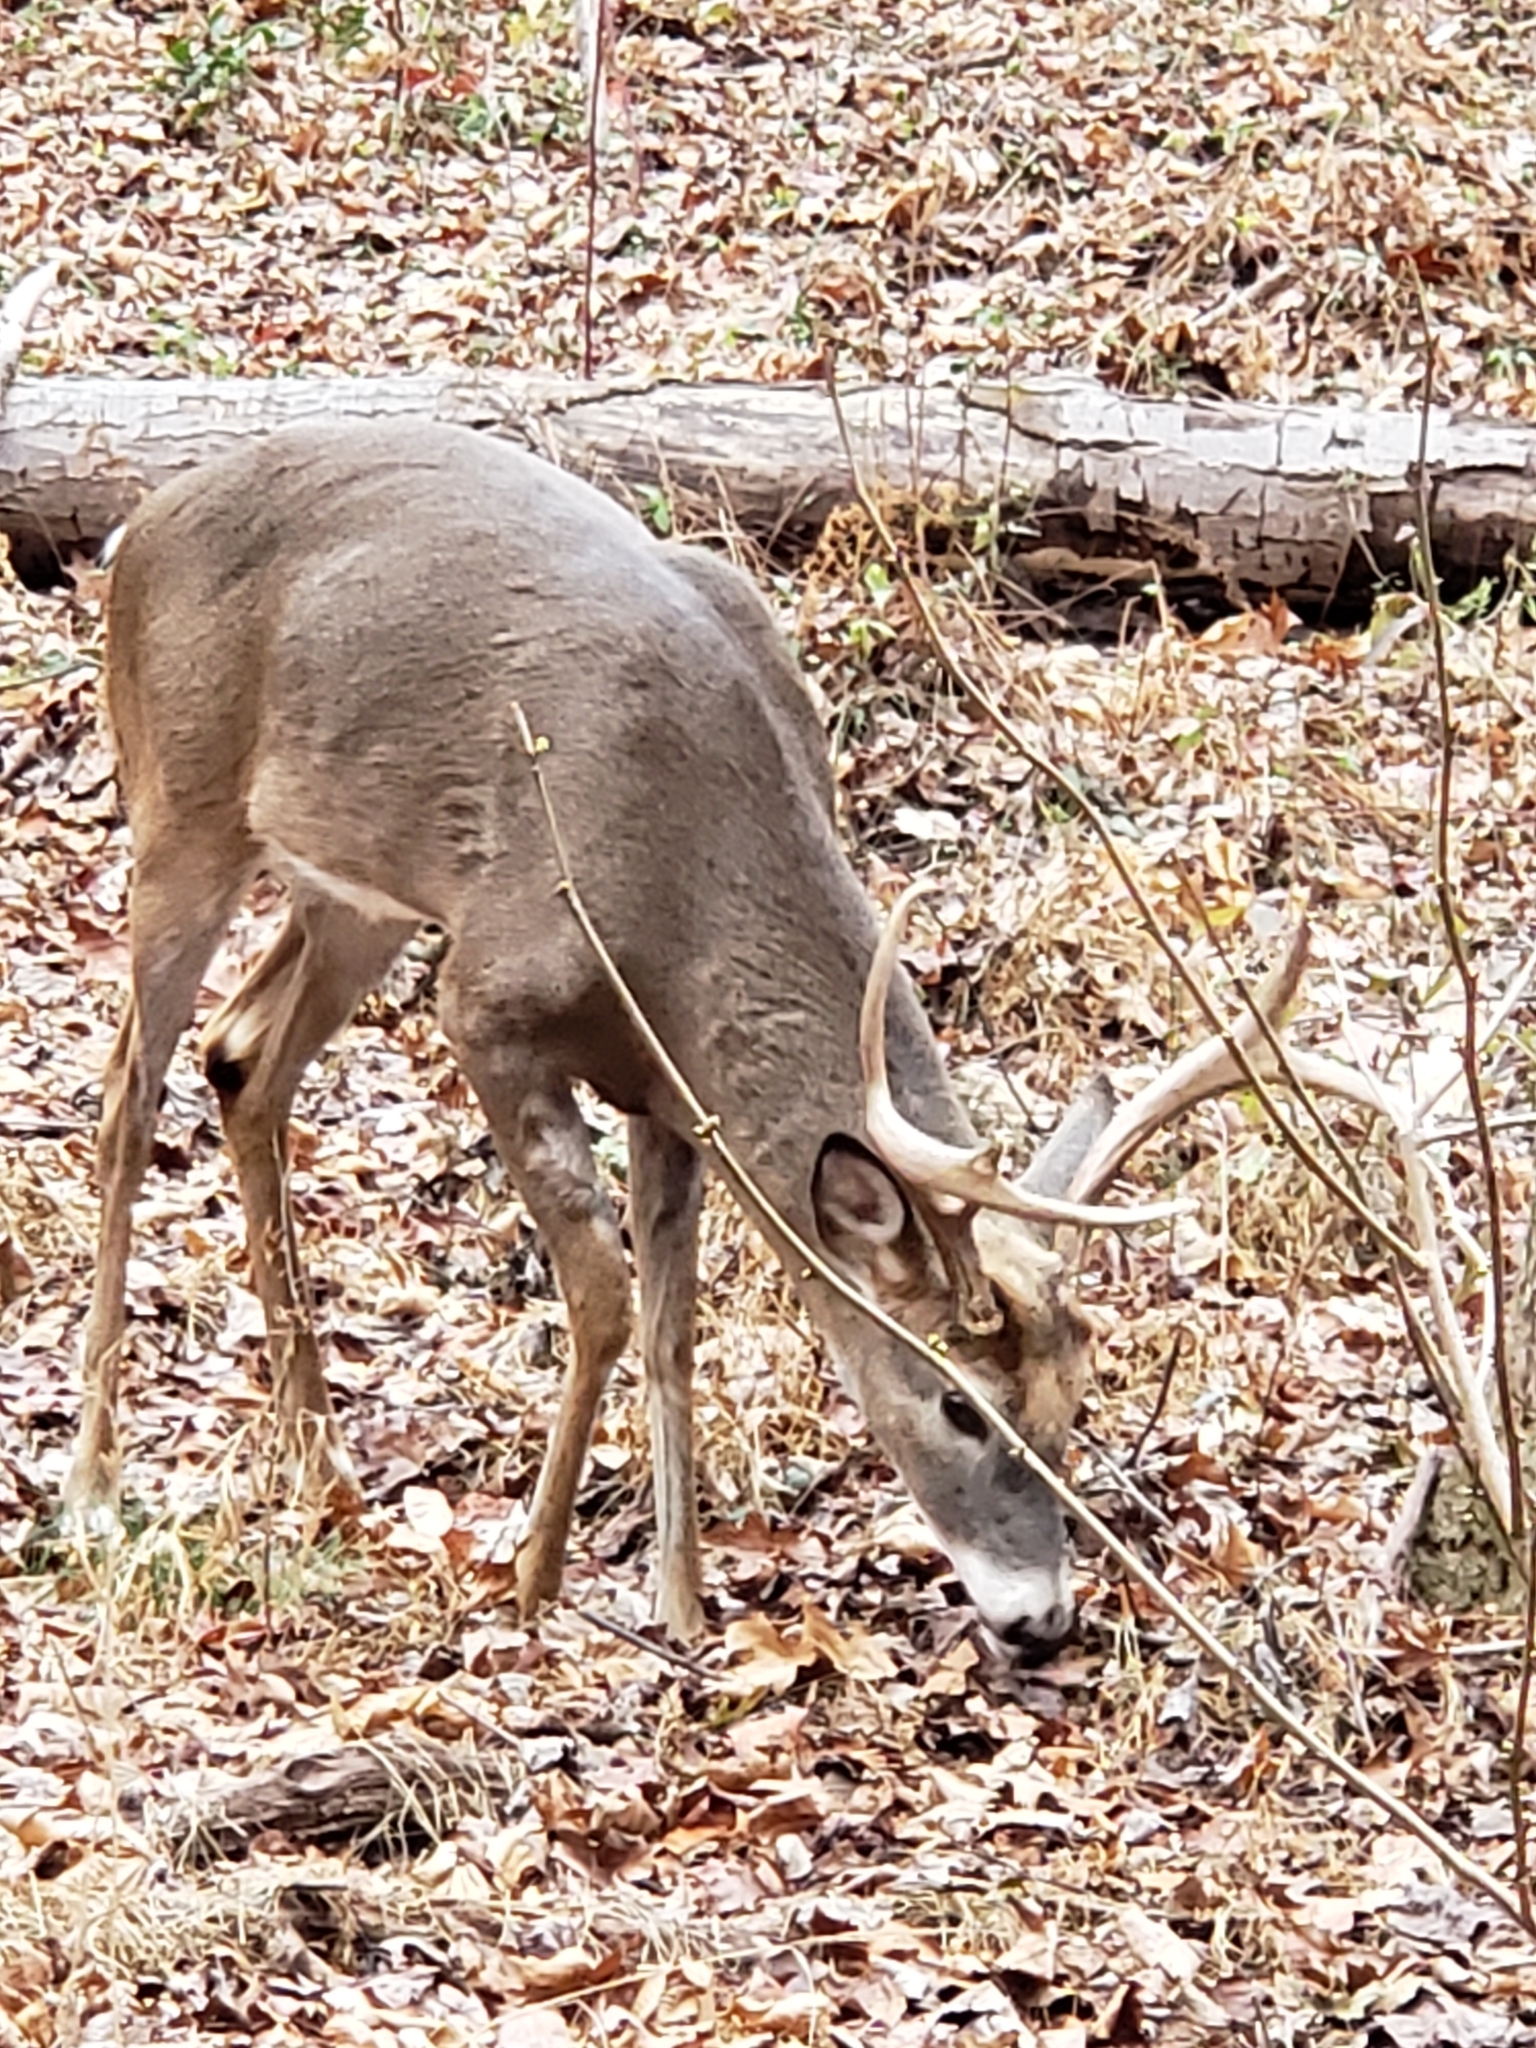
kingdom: Animalia
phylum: Chordata
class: Mammalia
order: Artiodactyla
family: Cervidae
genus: Odocoileus
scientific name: Odocoileus virginianus
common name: White-tailed deer
